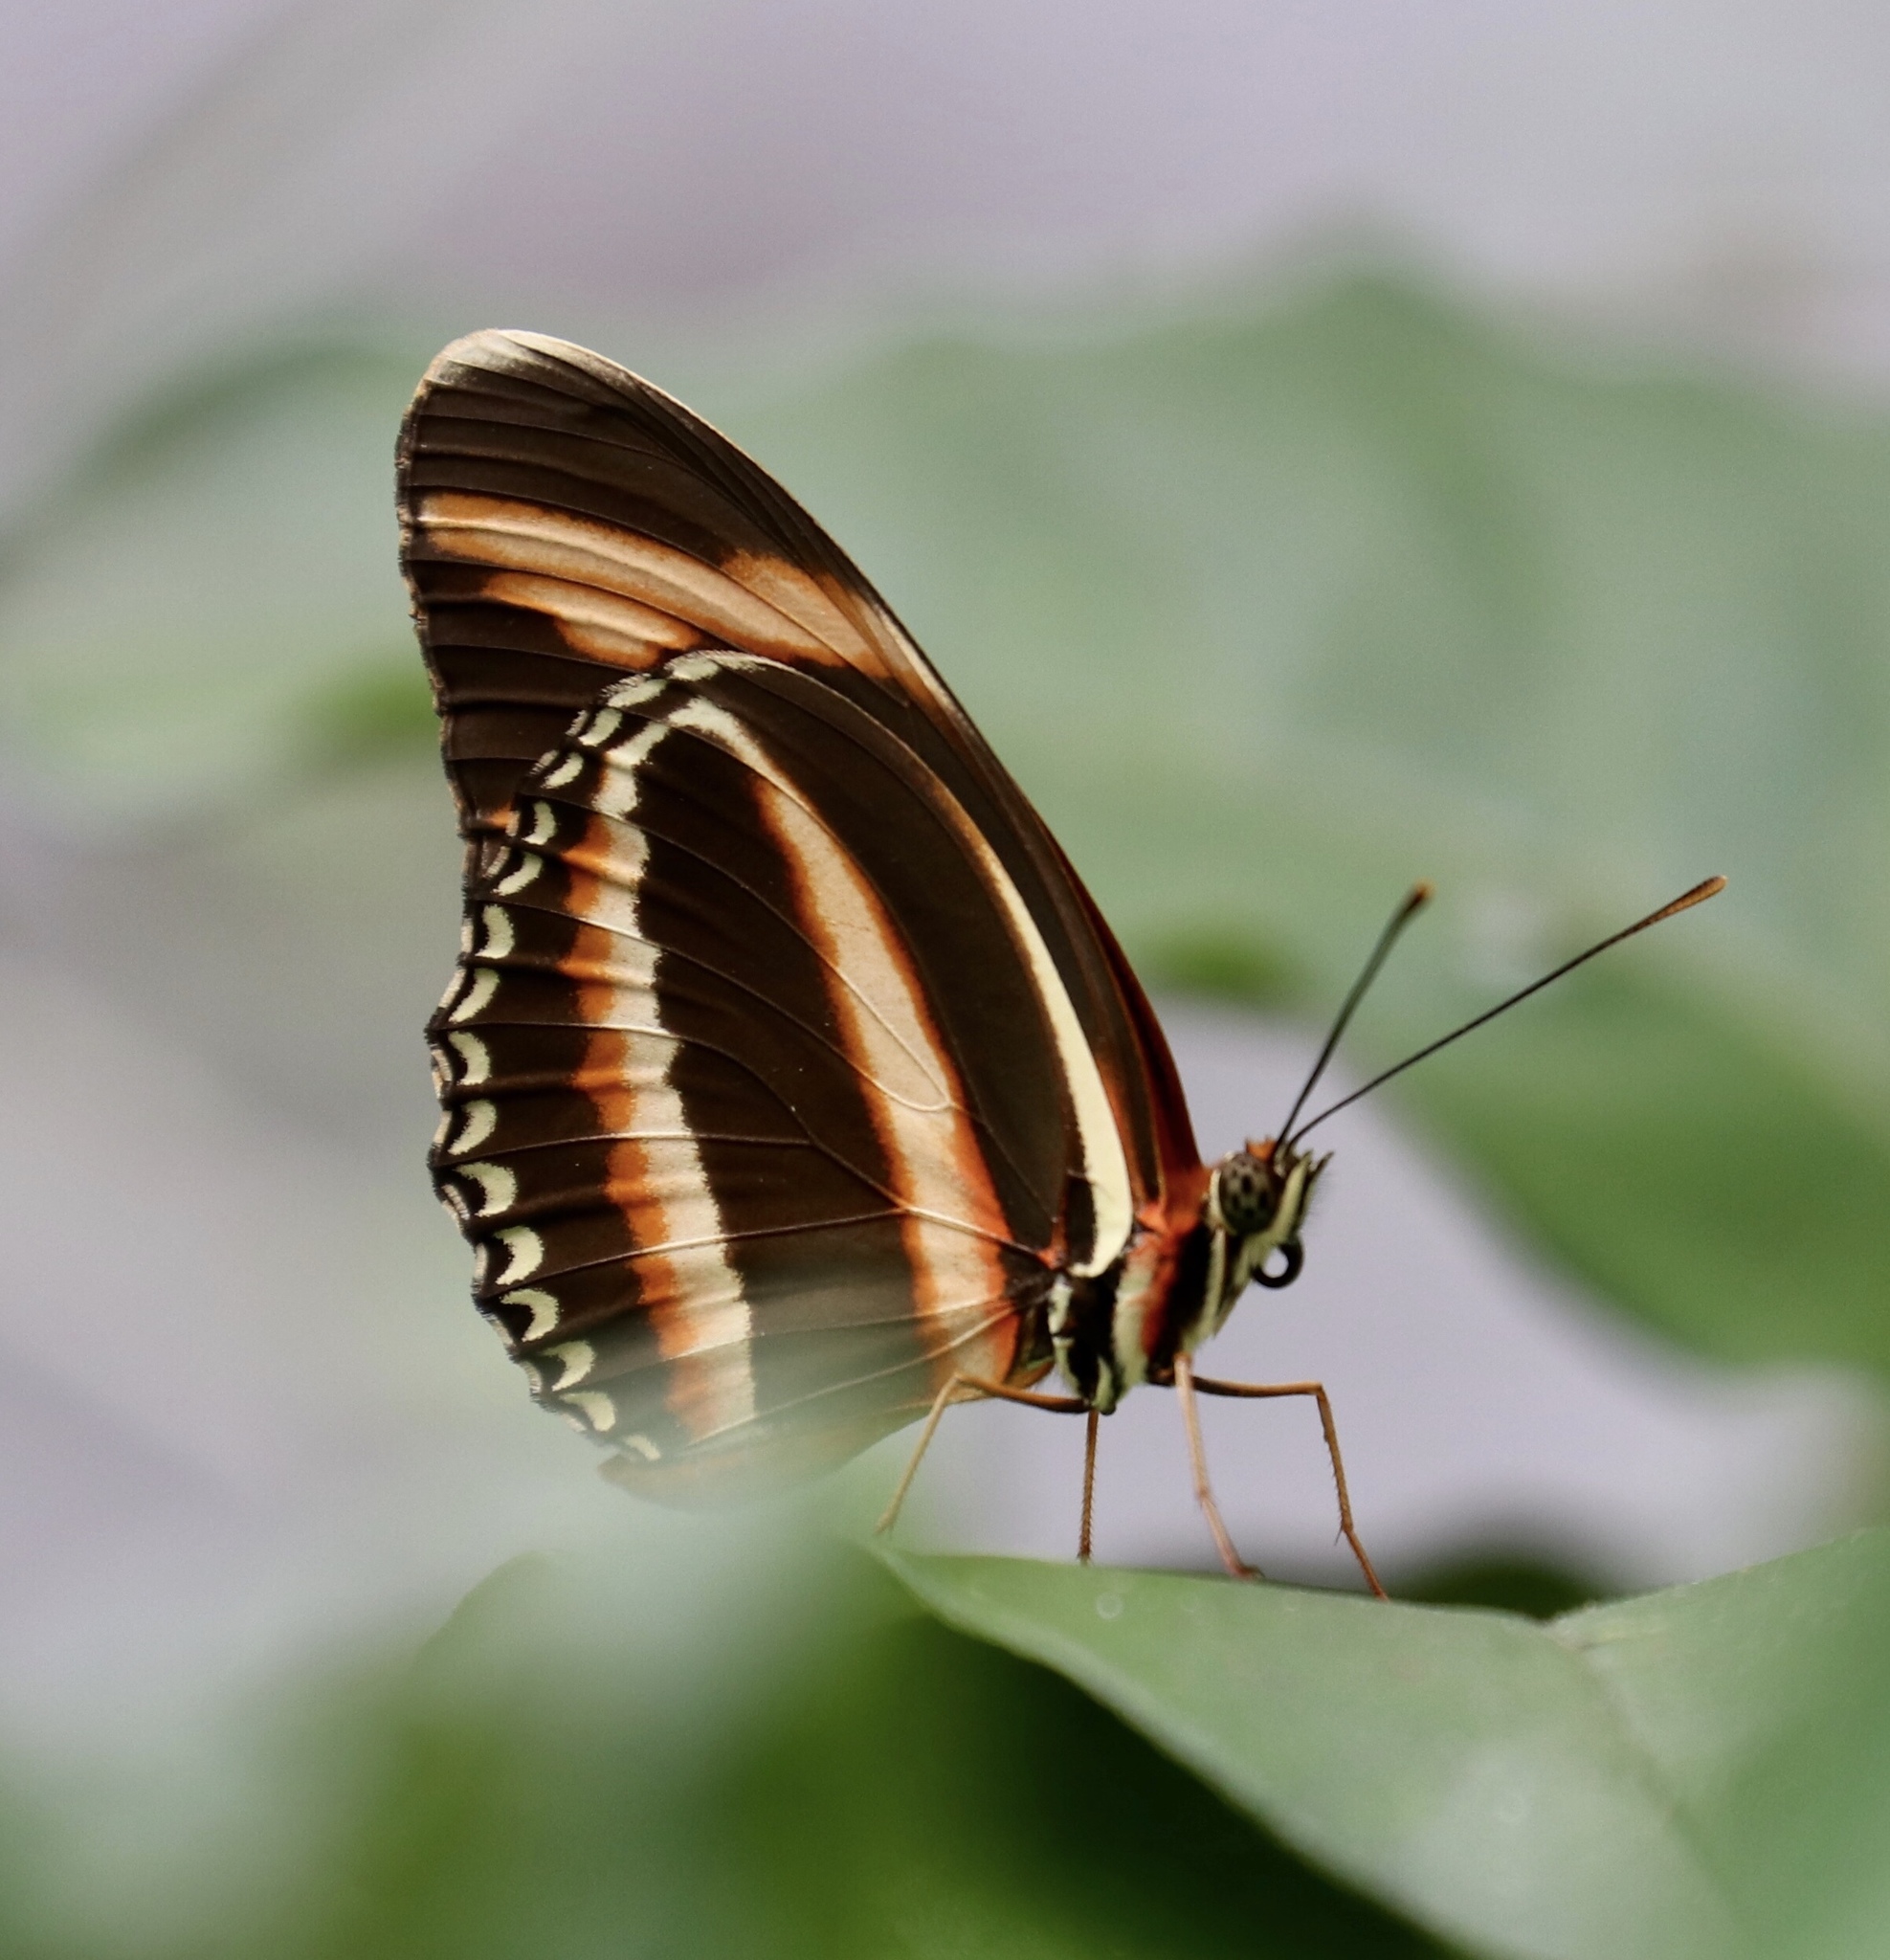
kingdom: Animalia
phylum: Arthropoda
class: Insecta
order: Lepidoptera
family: Nymphalidae
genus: Dryadula
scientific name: Dryadula phaetusa
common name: Banded orange heliconian
